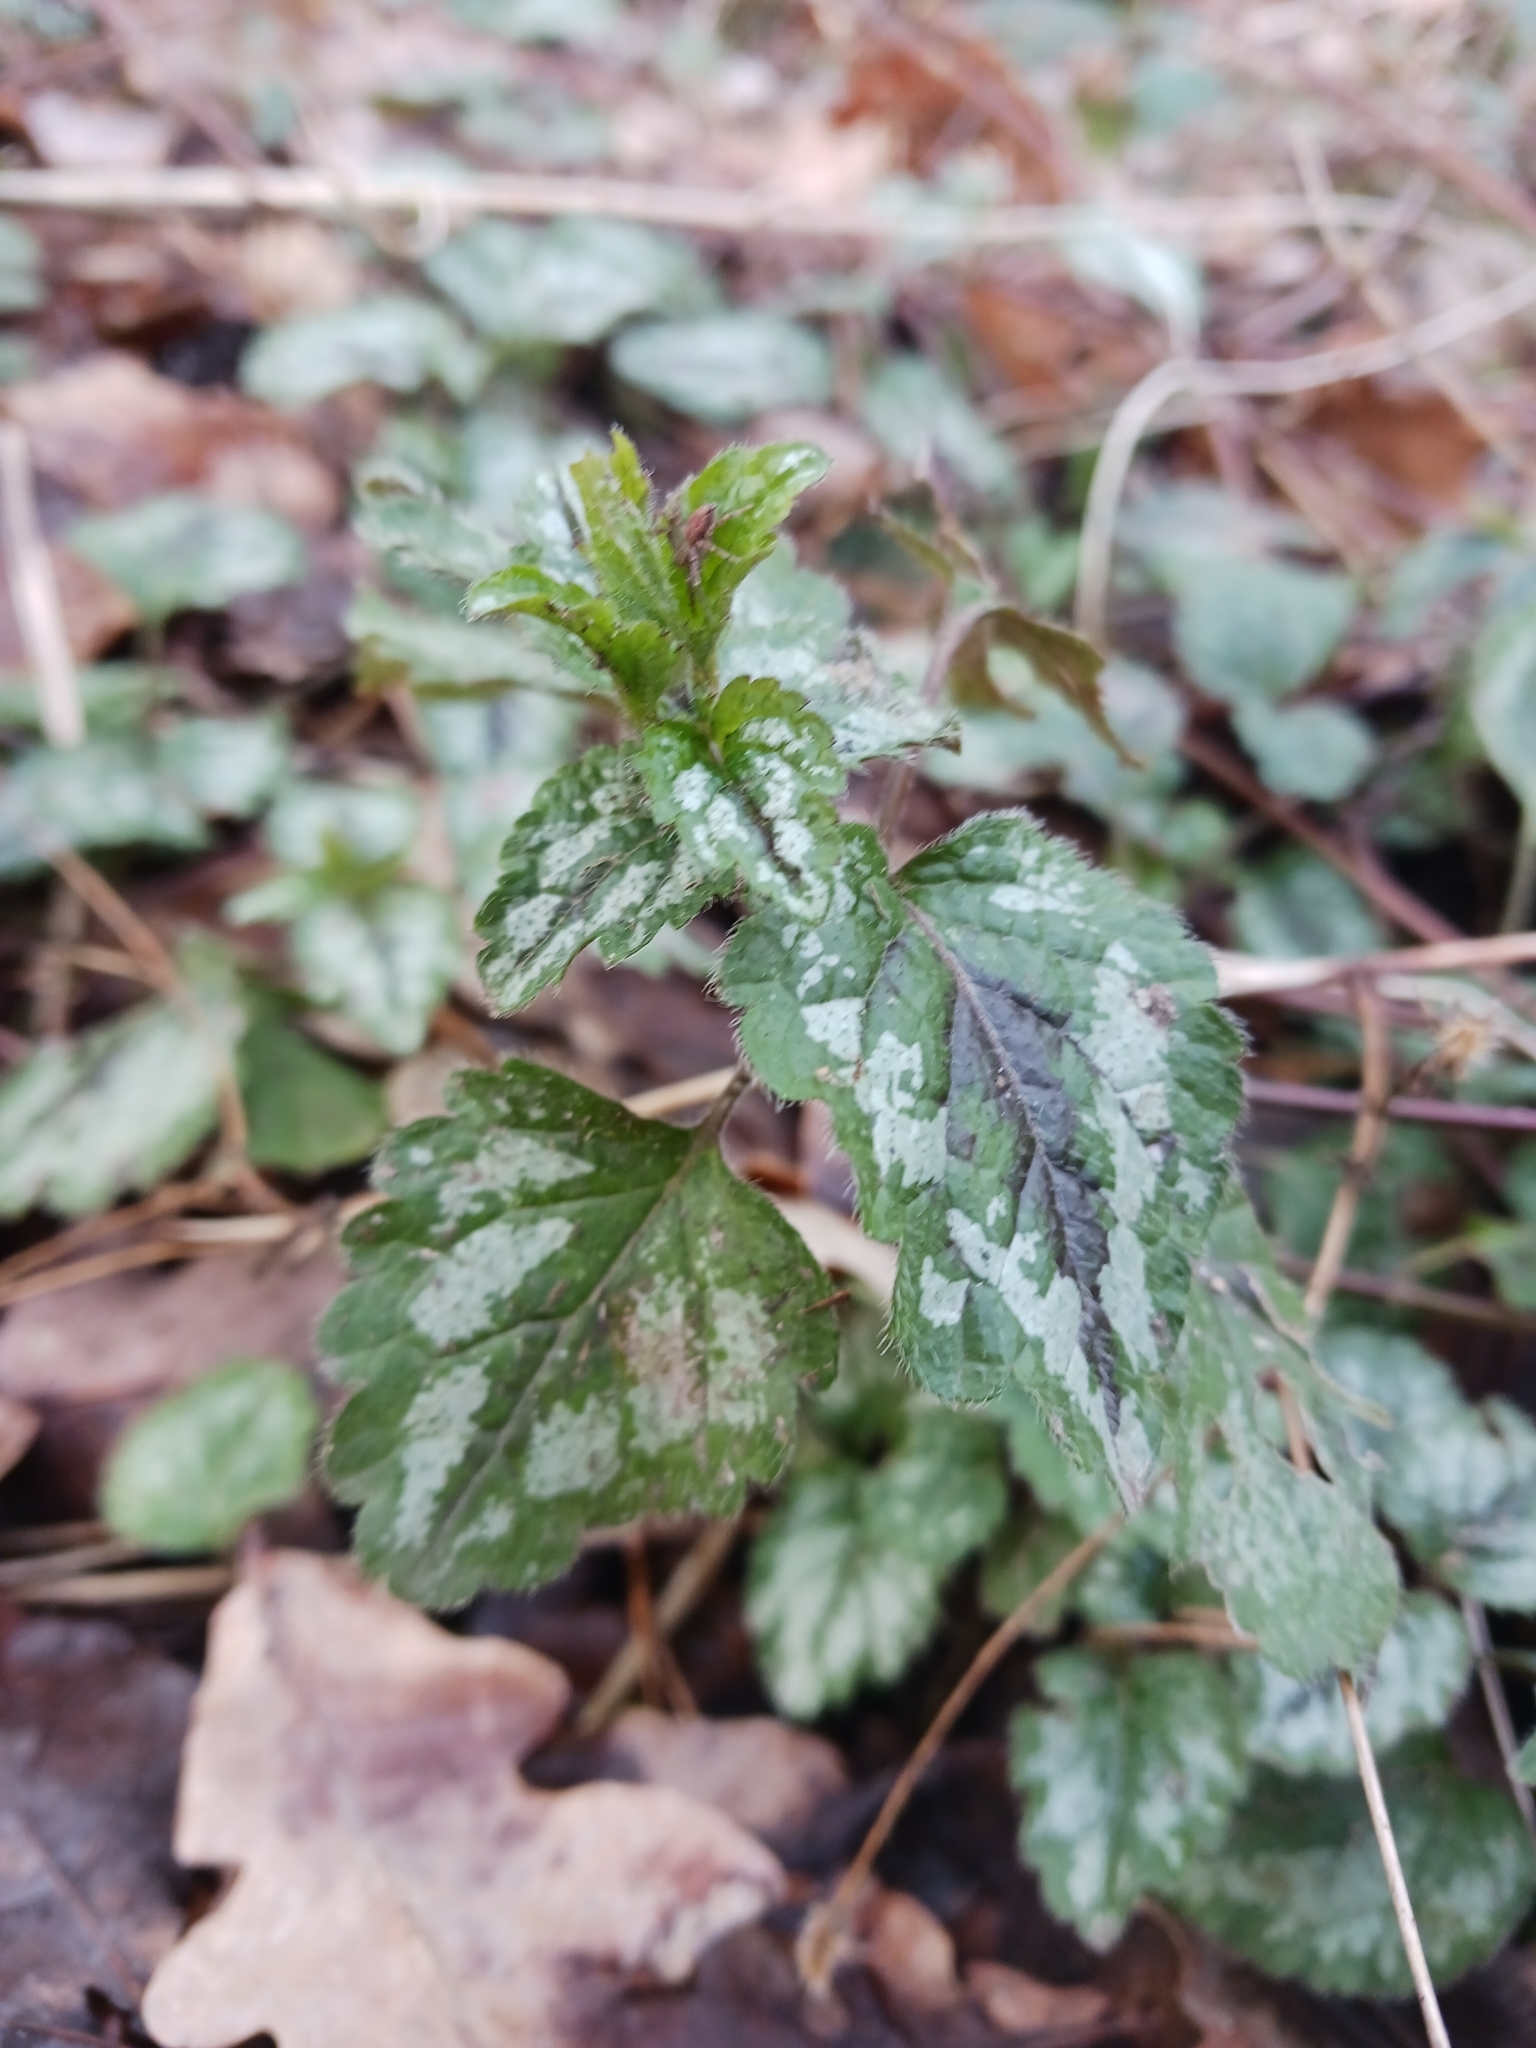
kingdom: Plantae
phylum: Tracheophyta
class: Magnoliopsida
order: Lamiales
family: Lamiaceae
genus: Lamium
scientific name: Lamium galeobdolon
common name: Yellow archangel
